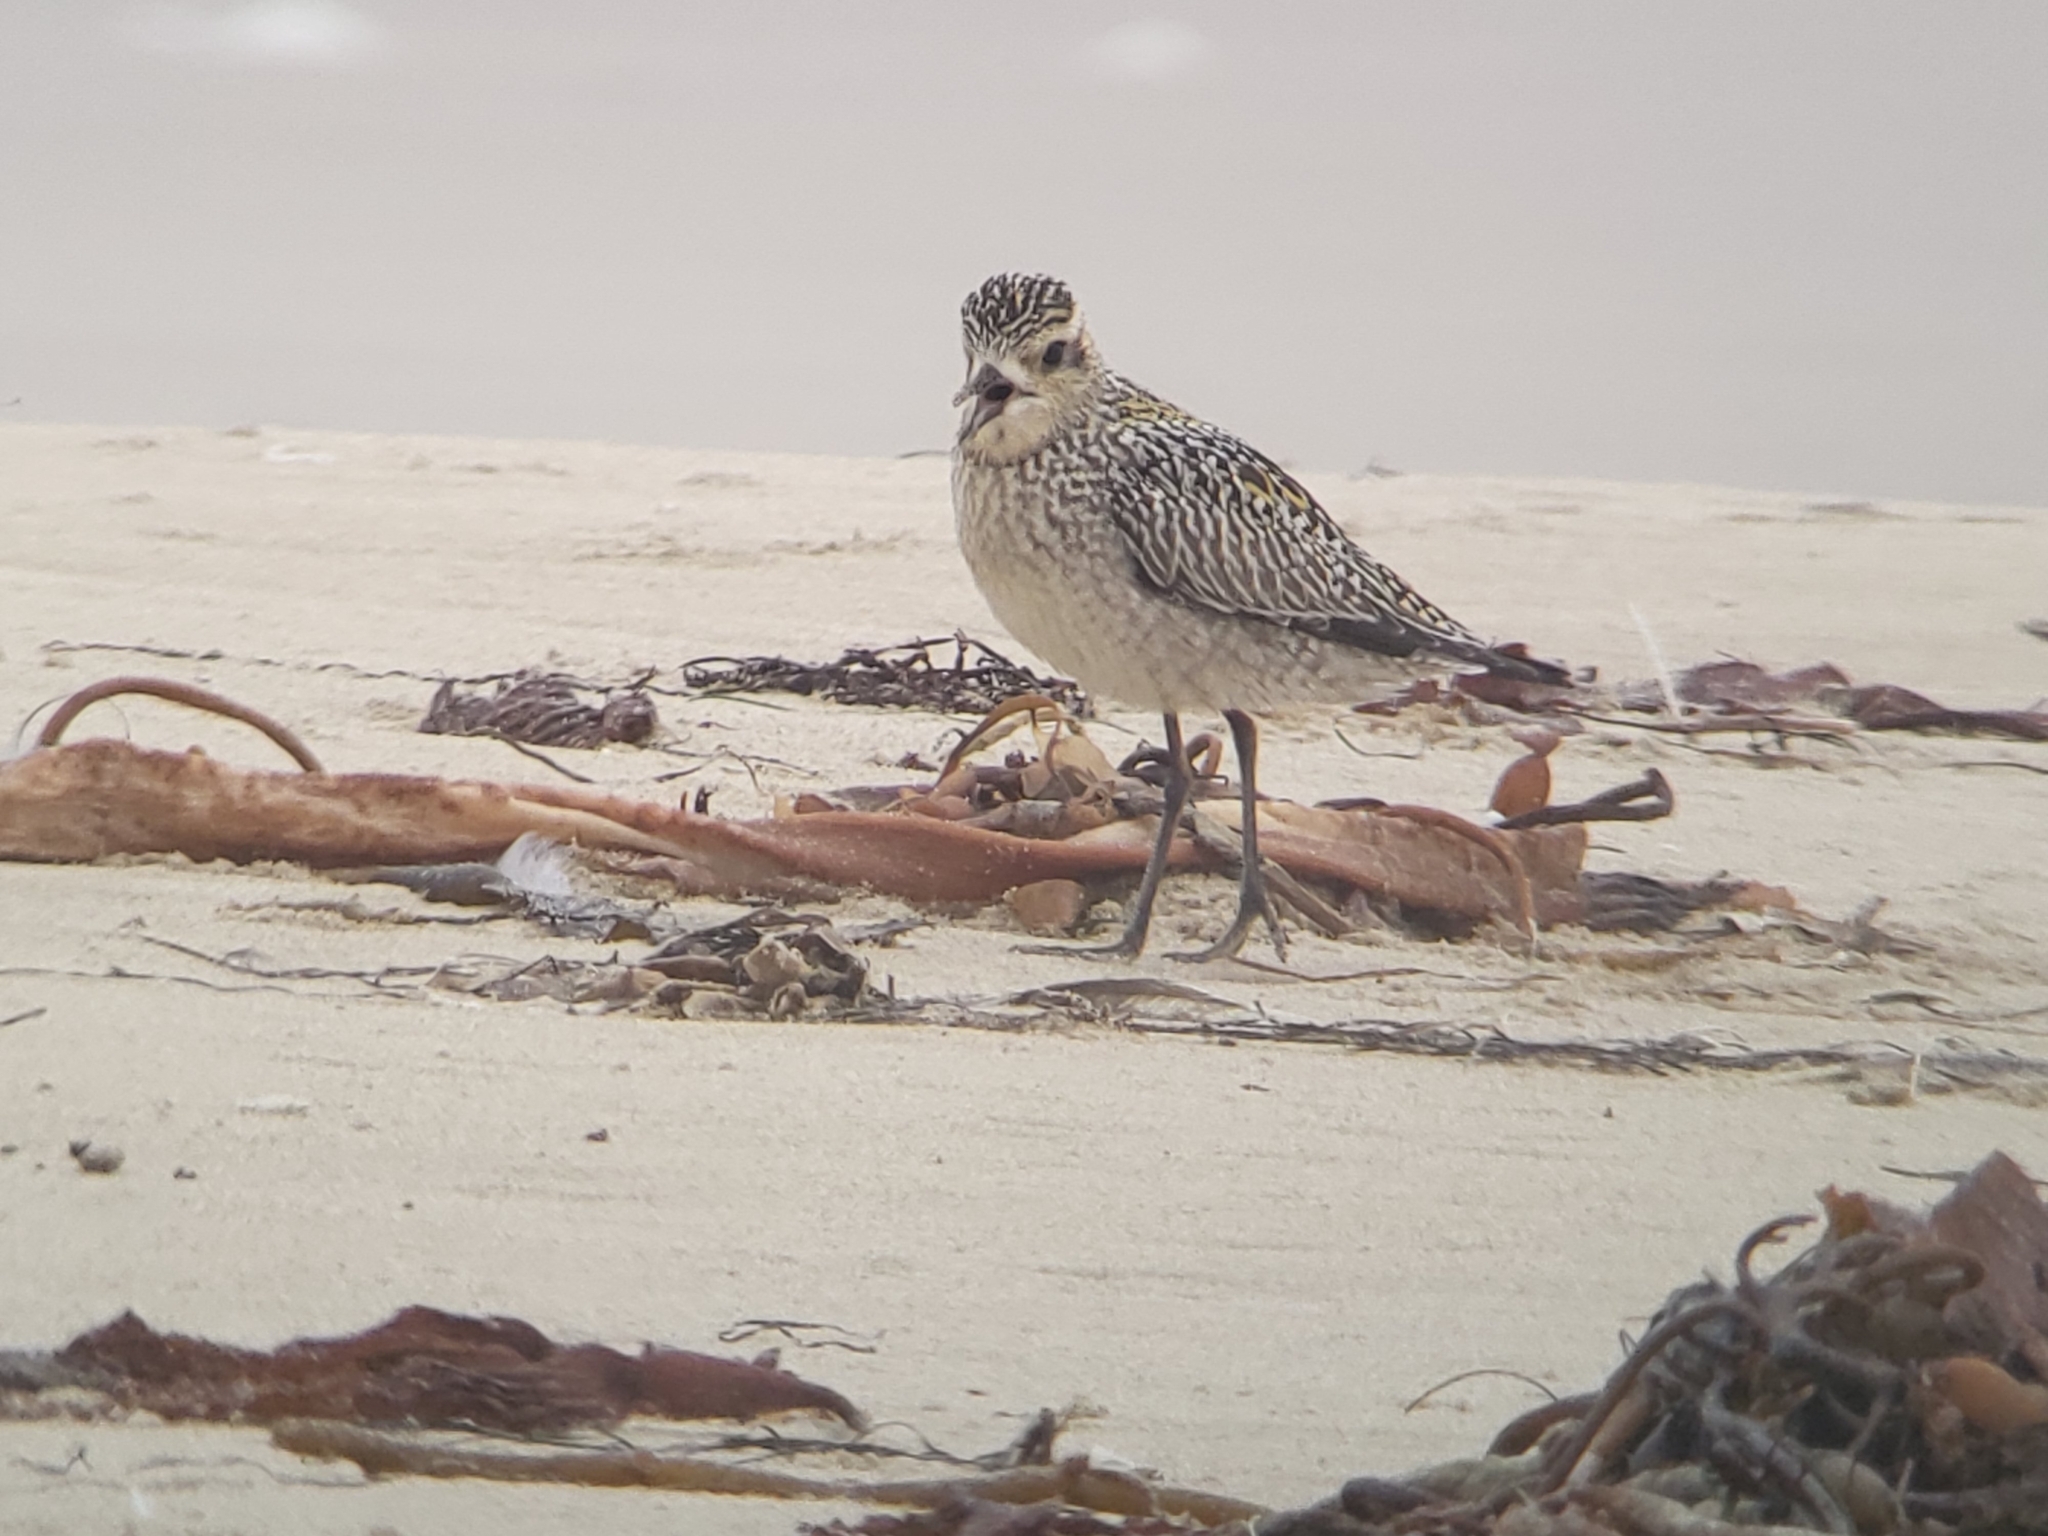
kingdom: Animalia
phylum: Chordata
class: Aves
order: Charadriiformes
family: Charadriidae
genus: Pluvialis
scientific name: Pluvialis fulva
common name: Pacific golden plover
